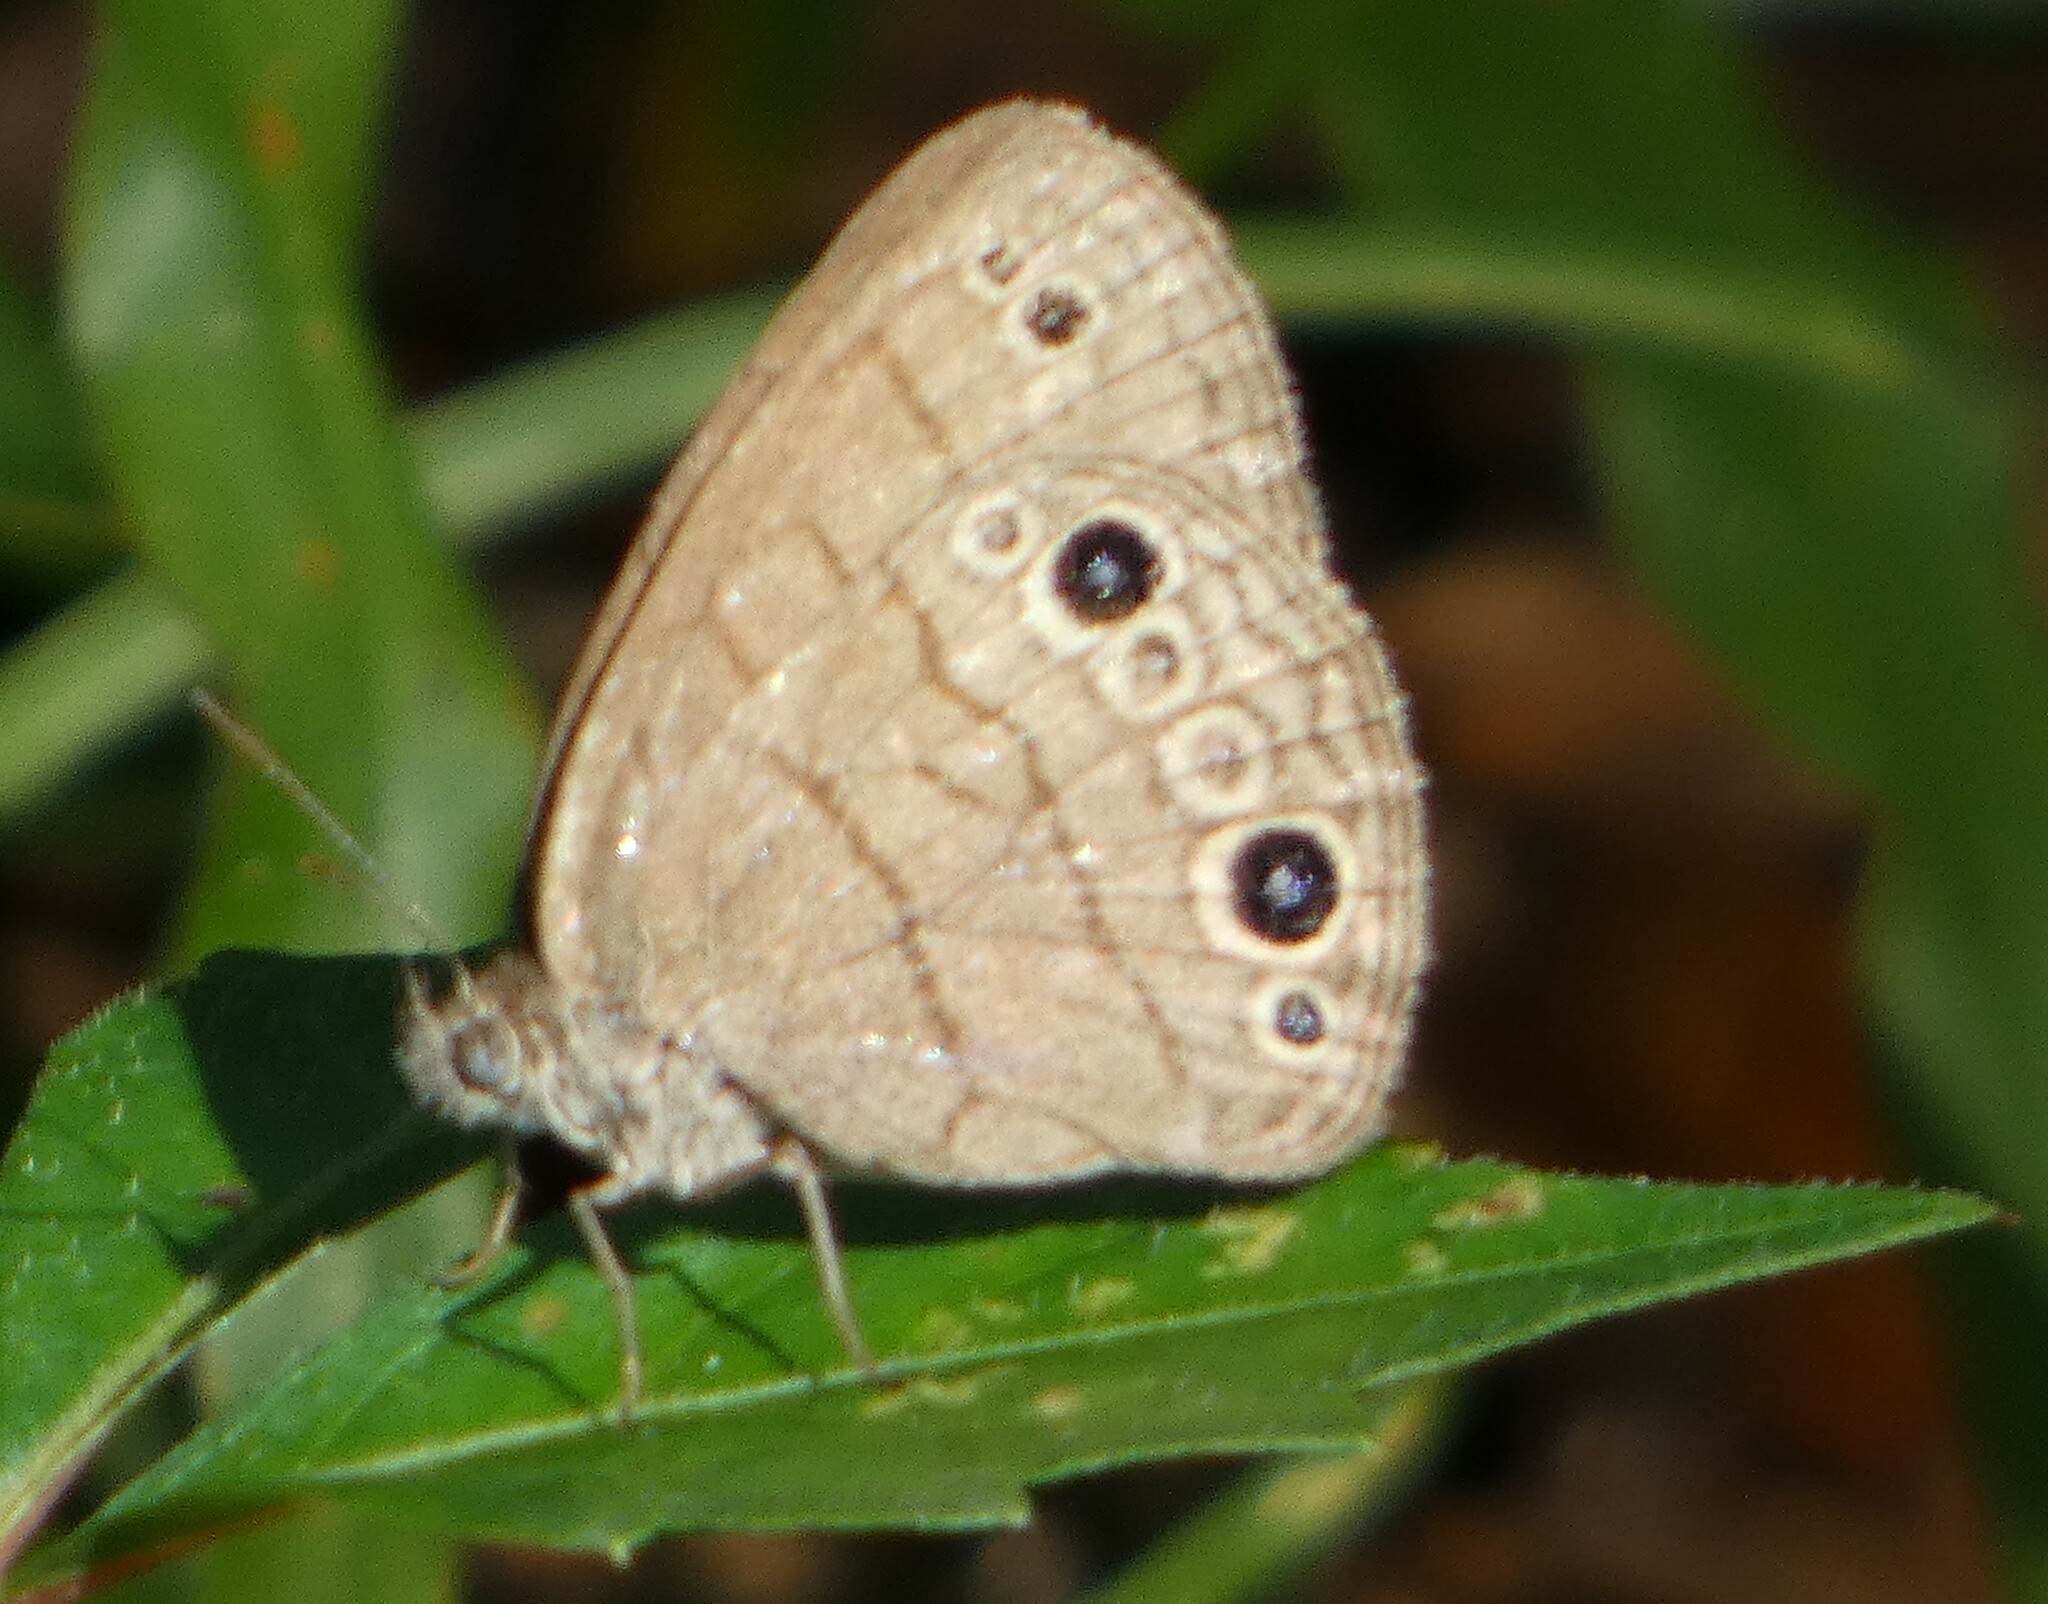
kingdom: Animalia
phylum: Arthropoda
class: Insecta
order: Lepidoptera
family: Nymphalidae
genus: Hermeuptychia
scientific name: Hermeuptychia hermes
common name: Hermes satyr
